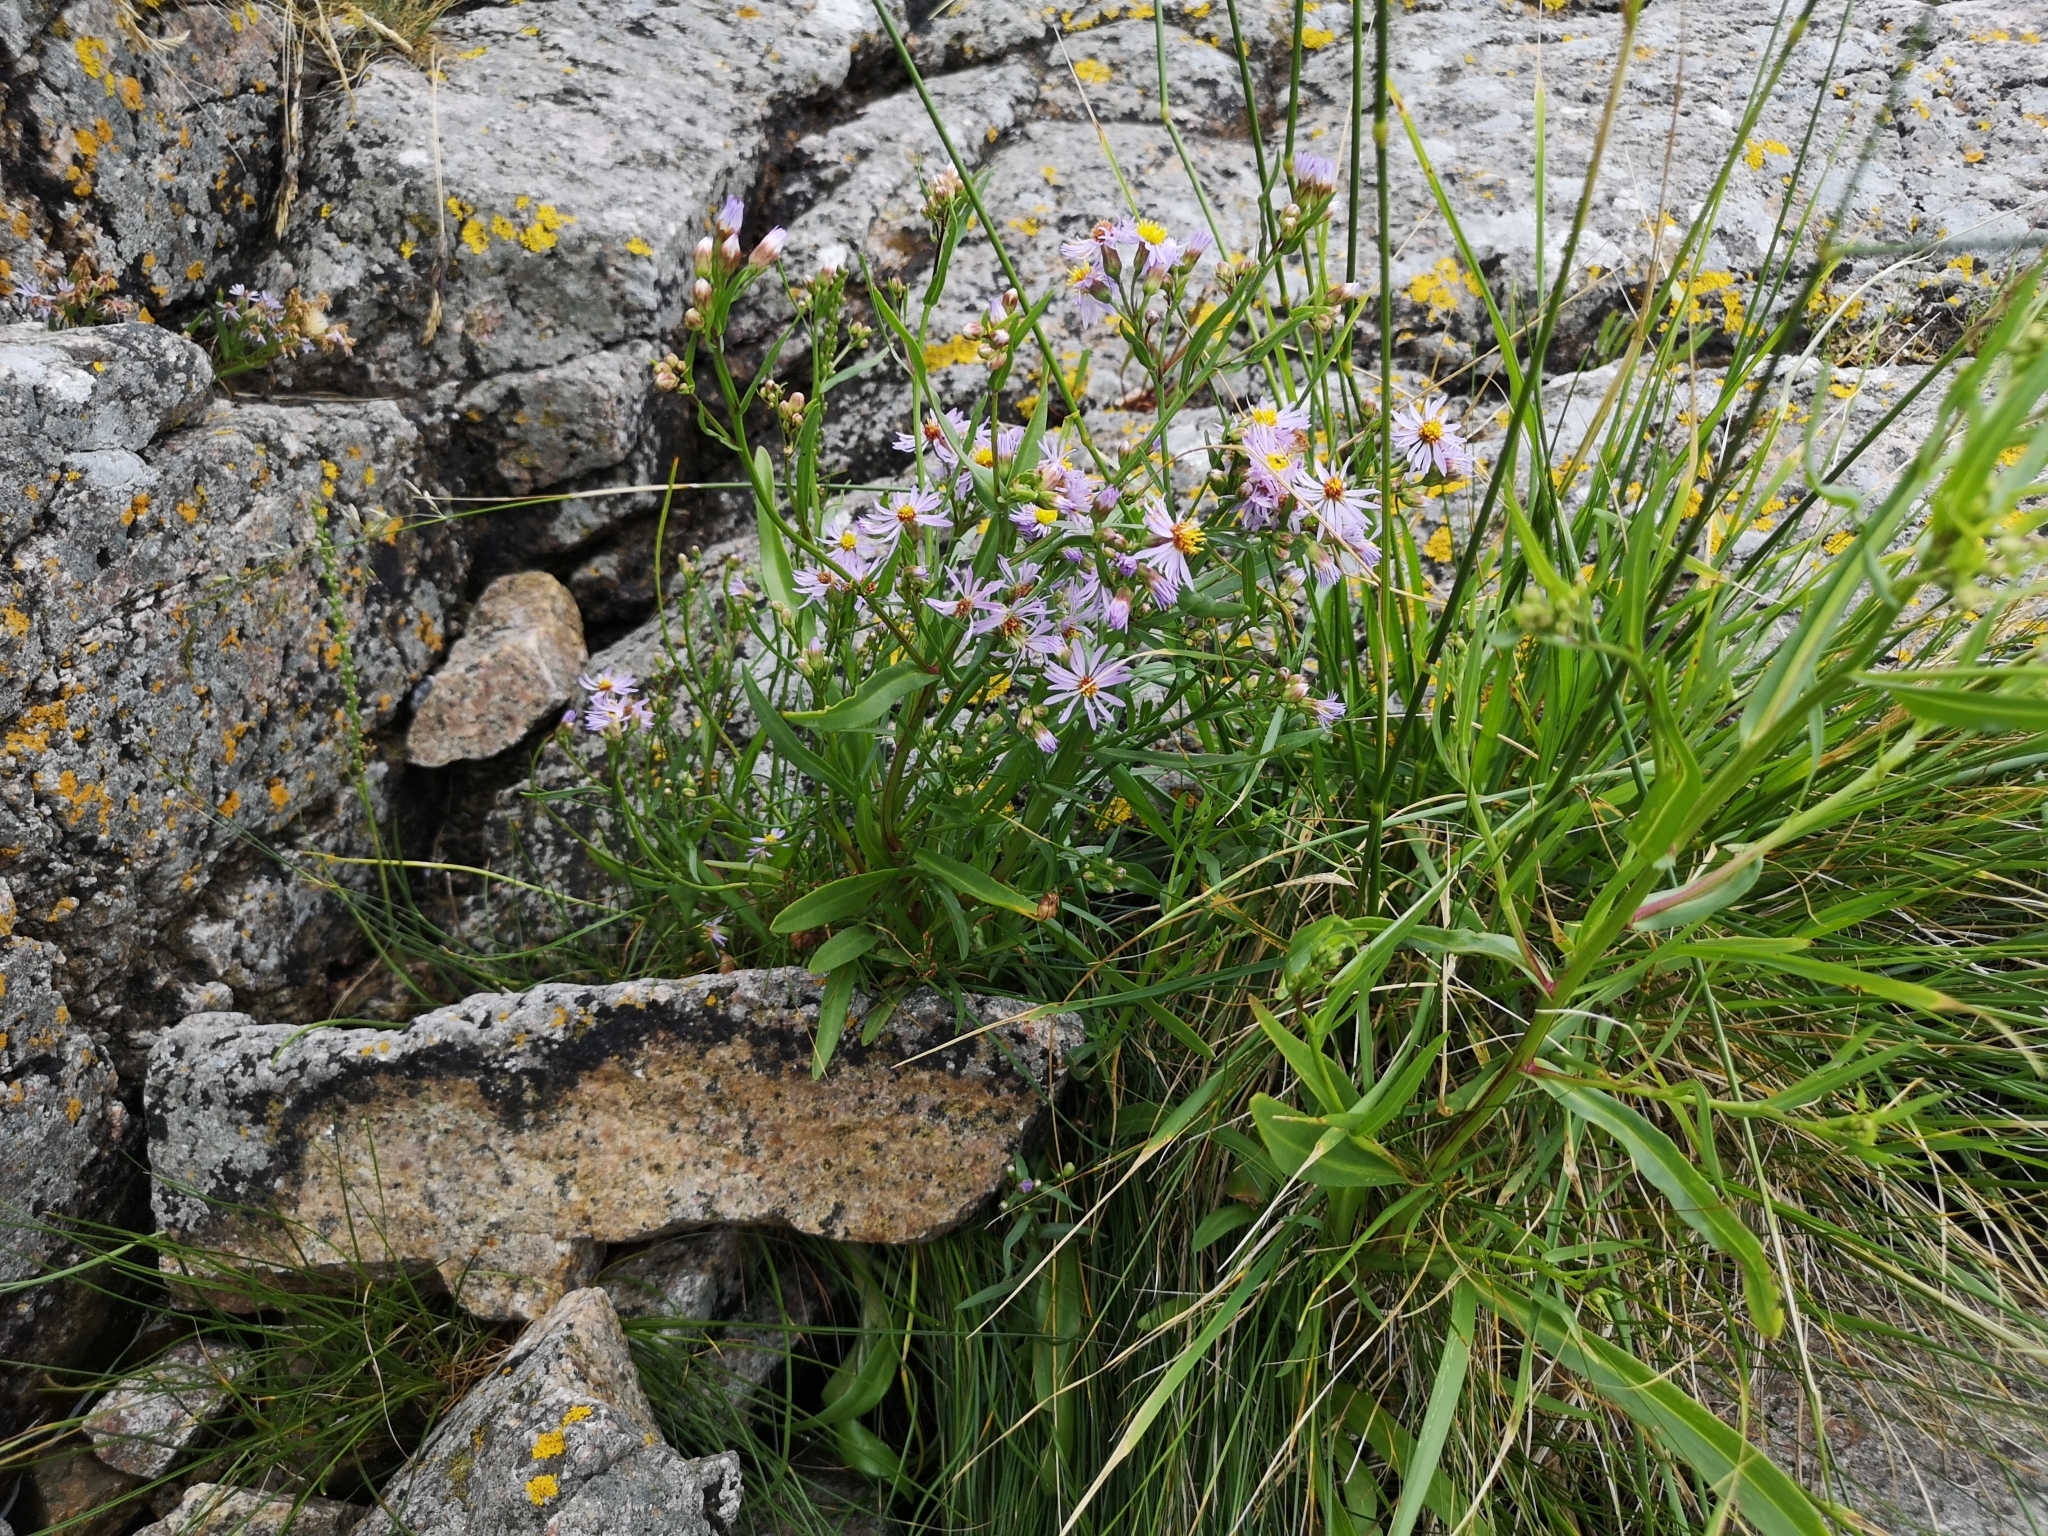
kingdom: Plantae
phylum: Tracheophyta
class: Magnoliopsida
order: Asterales
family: Asteraceae
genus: Tripolium
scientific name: Tripolium pannonicum
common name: Sea aster
